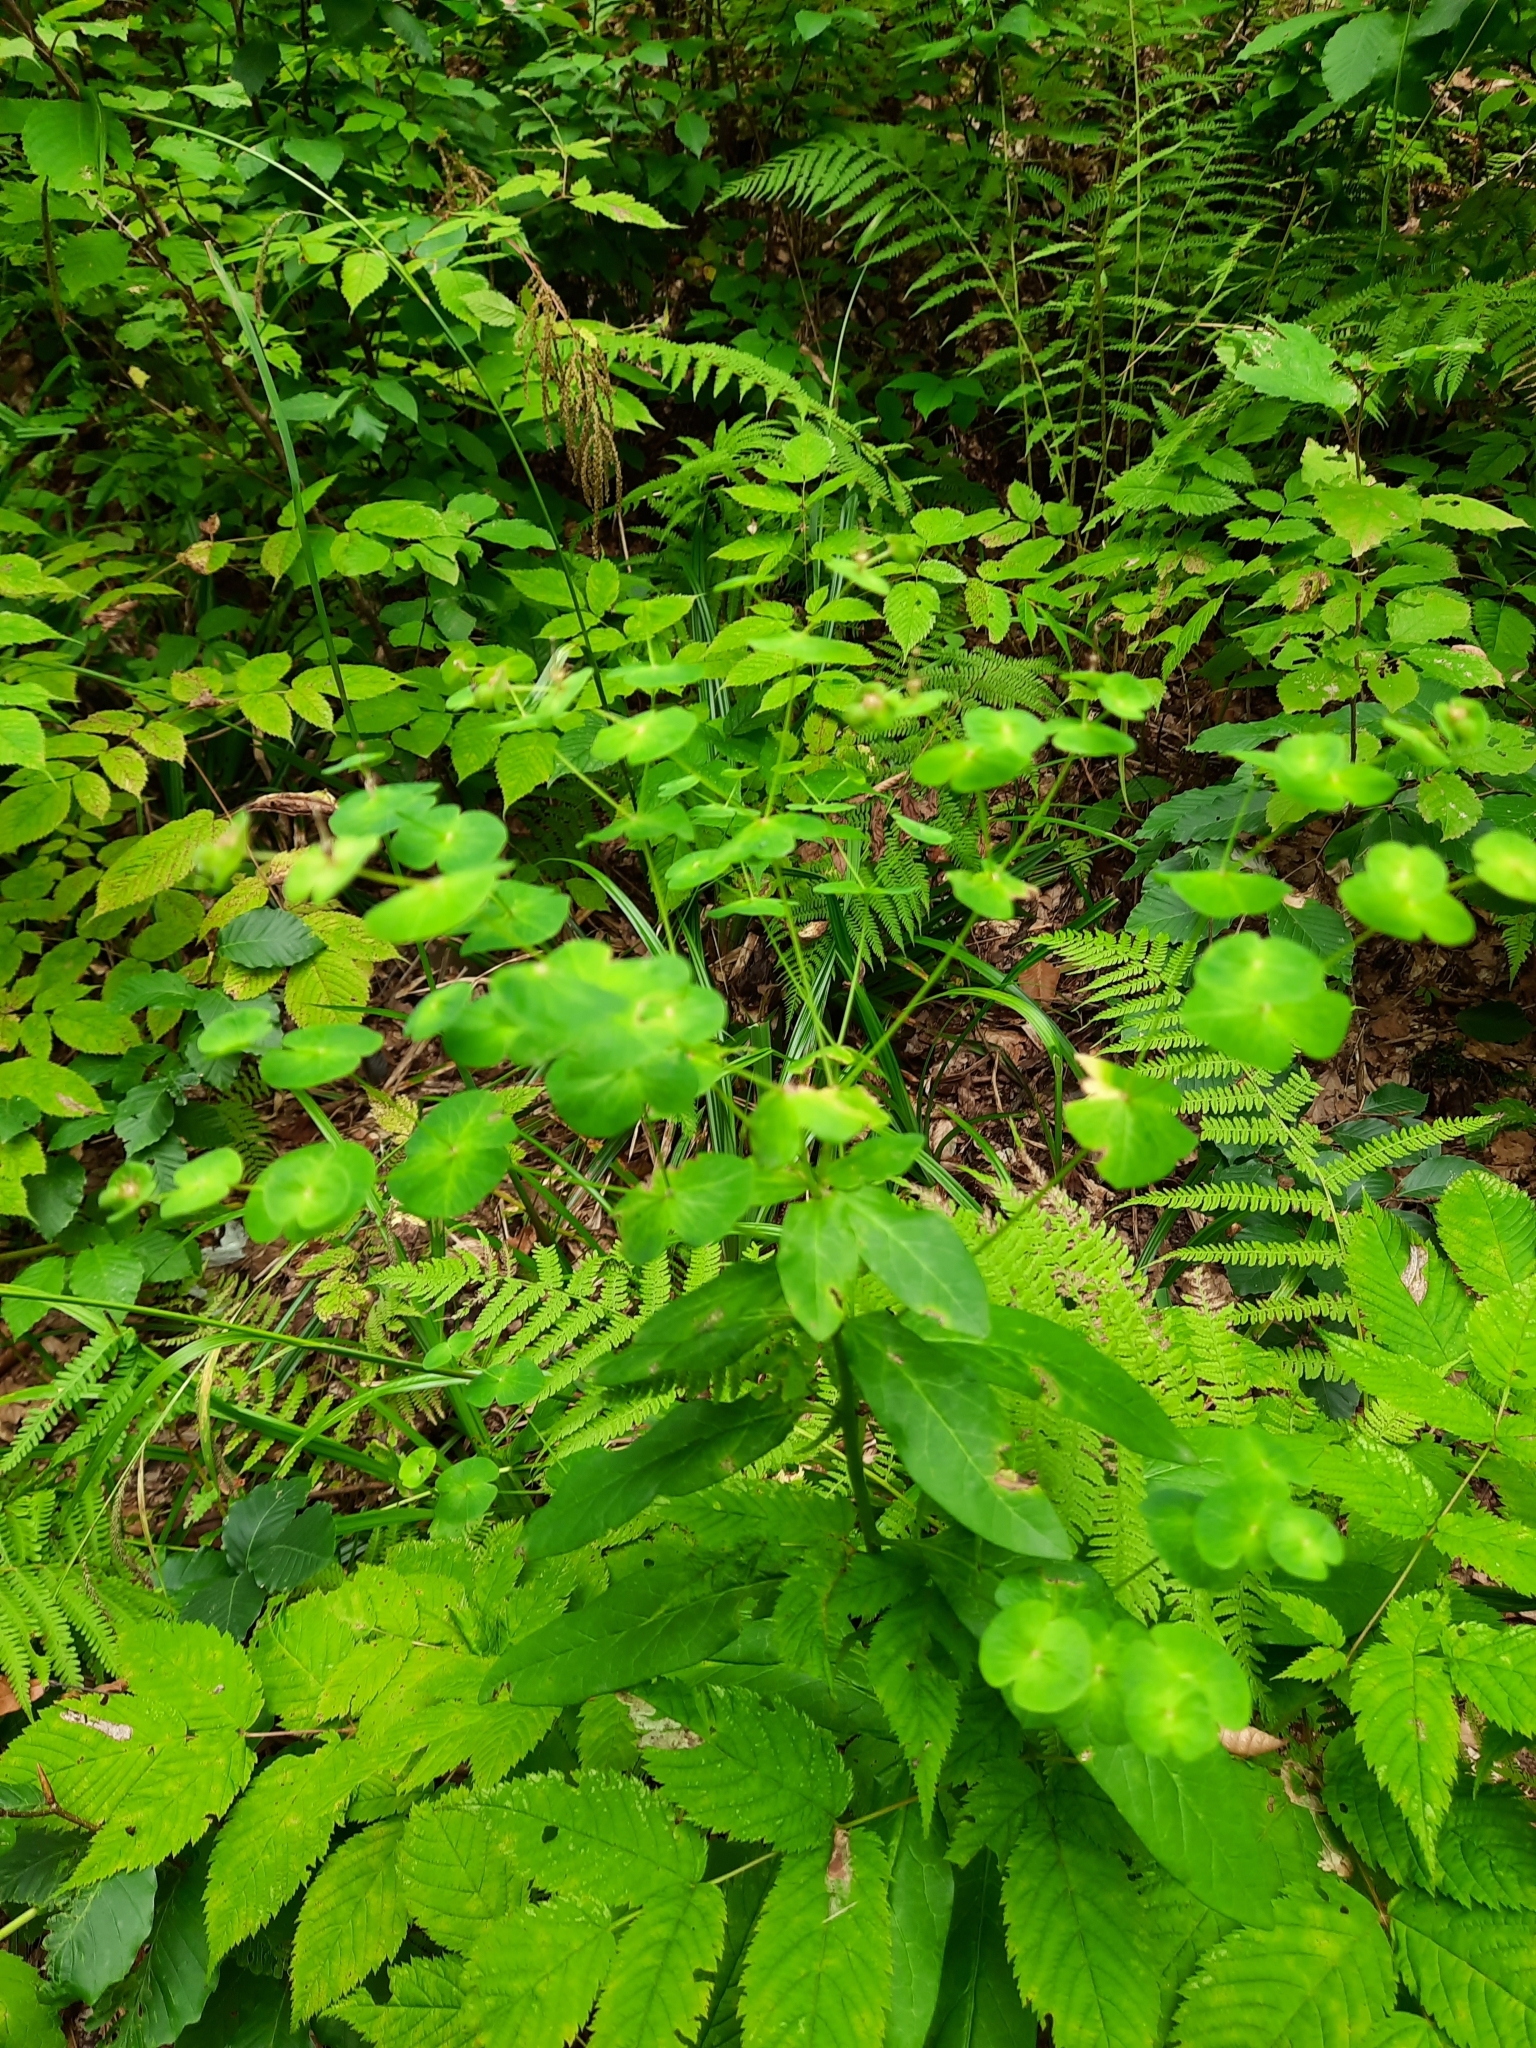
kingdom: Plantae
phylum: Tracheophyta
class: Magnoliopsida
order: Malpighiales
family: Euphorbiaceae
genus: Euphorbia
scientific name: Euphorbia macroceras
